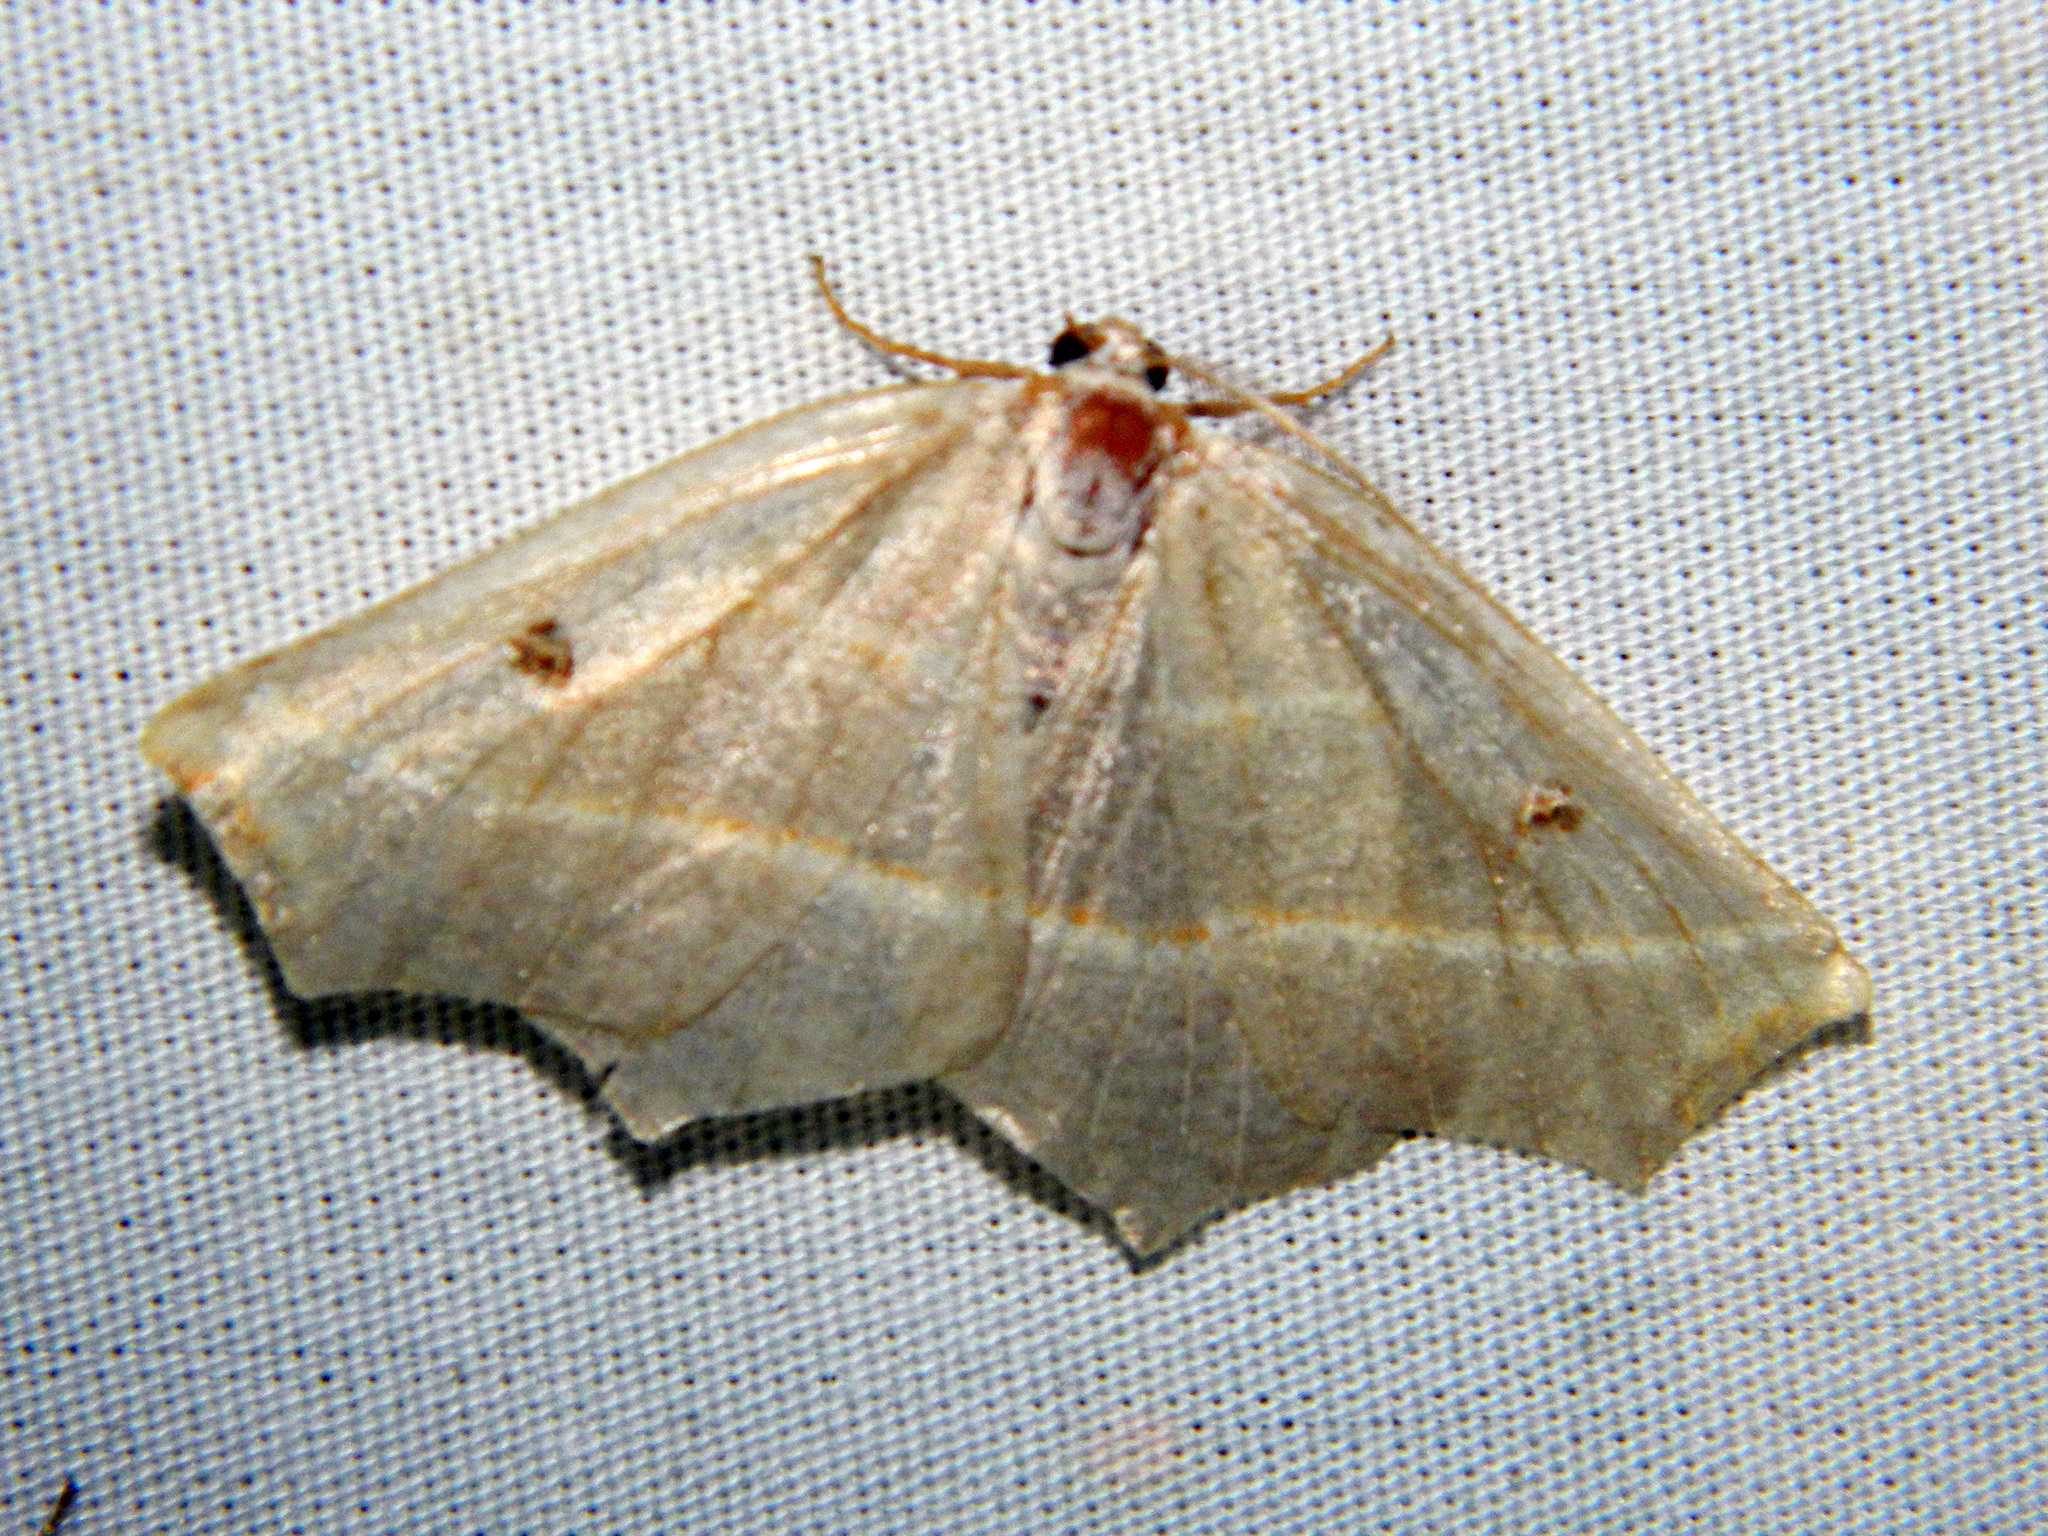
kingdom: Animalia
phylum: Arthropoda
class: Insecta
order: Lepidoptera
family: Geometridae
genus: Metanema
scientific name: Metanema inatomaria
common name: Pale metanema
